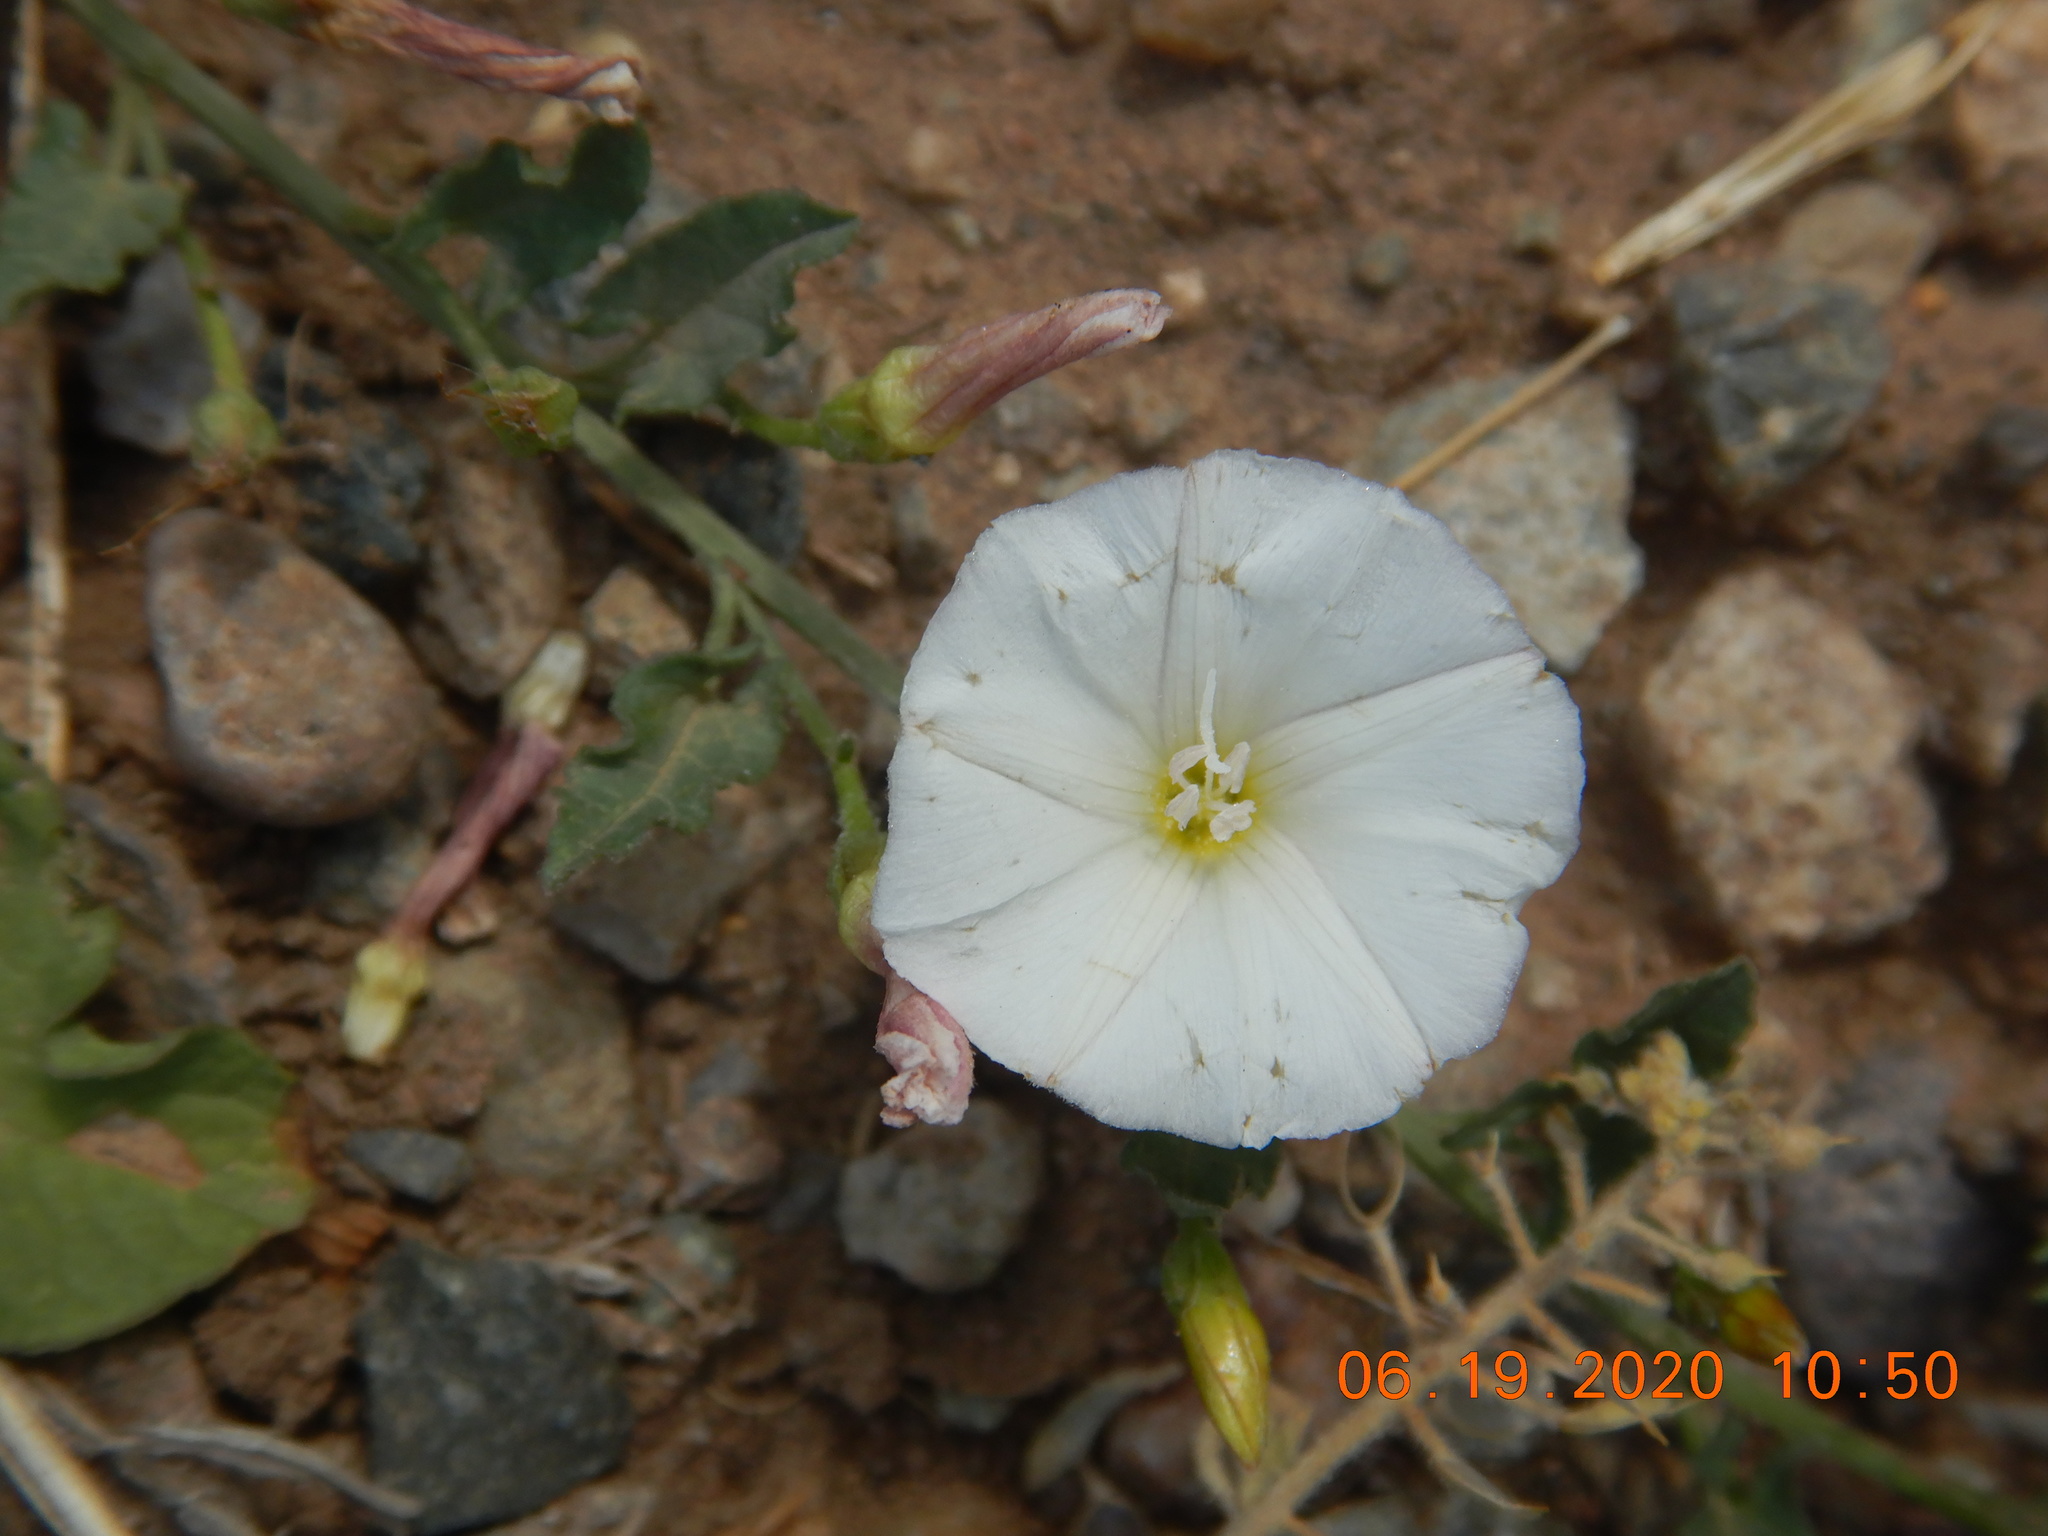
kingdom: Plantae
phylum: Tracheophyta
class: Magnoliopsida
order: Solanales
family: Convolvulaceae
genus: Convolvulus
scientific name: Convolvulus arvensis
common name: Field bindweed
